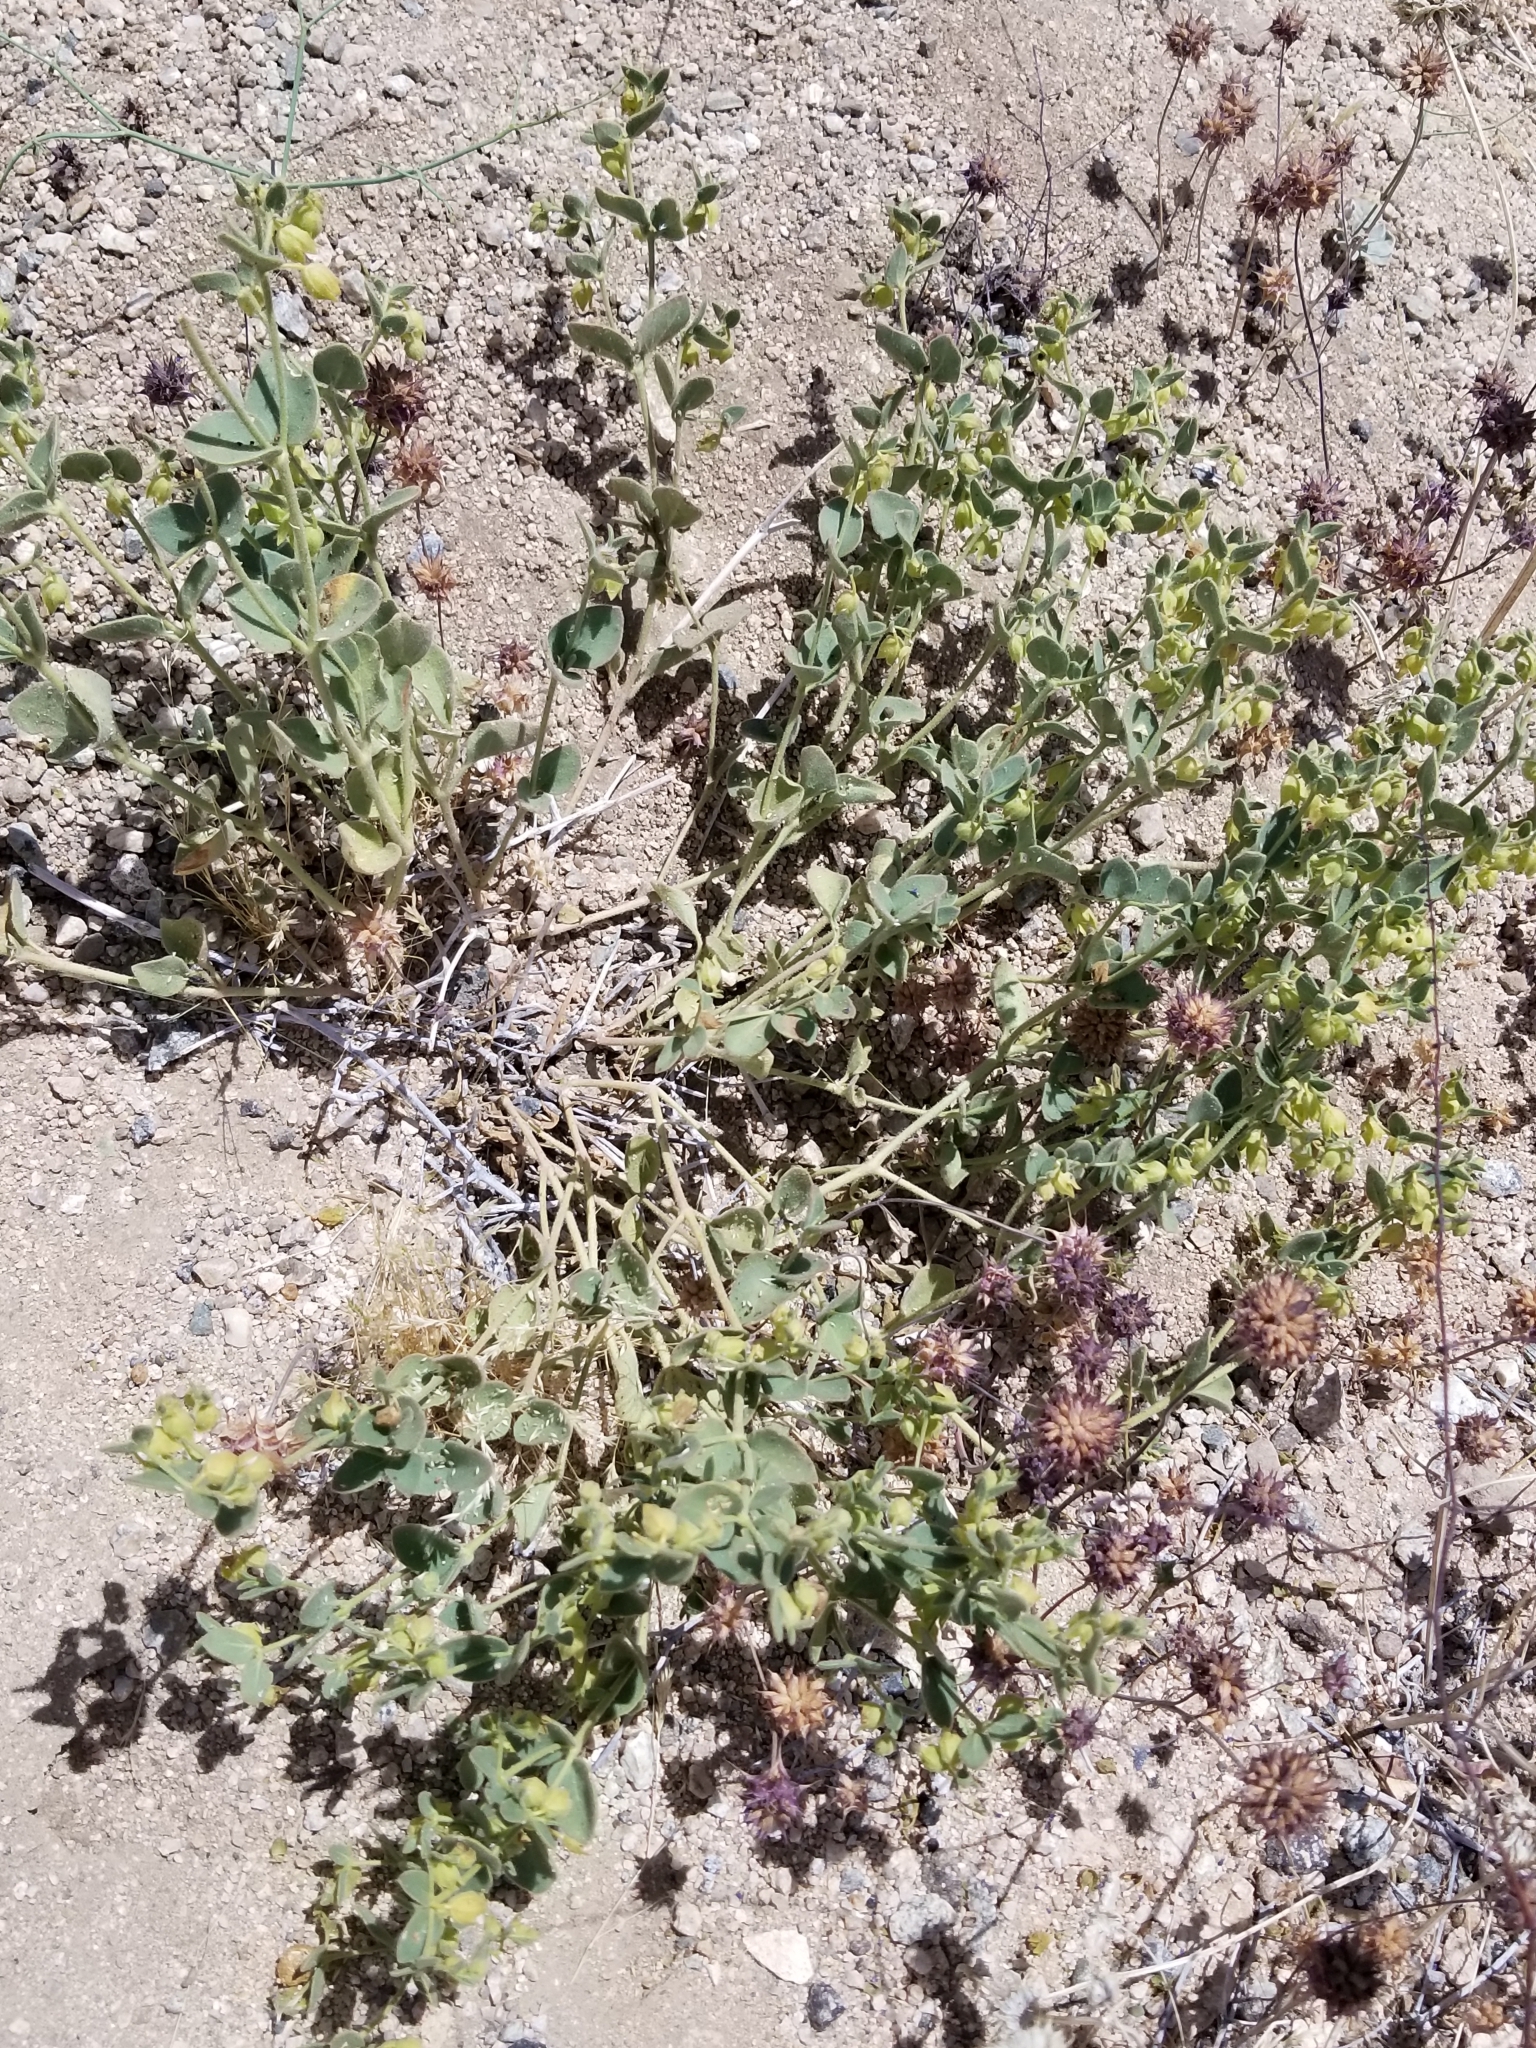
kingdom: Plantae
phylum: Tracheophyta
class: Magnoliopsida
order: Caryophyllales
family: Nyctaginaceae
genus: Mirabilis
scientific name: Mirabilis laevis
